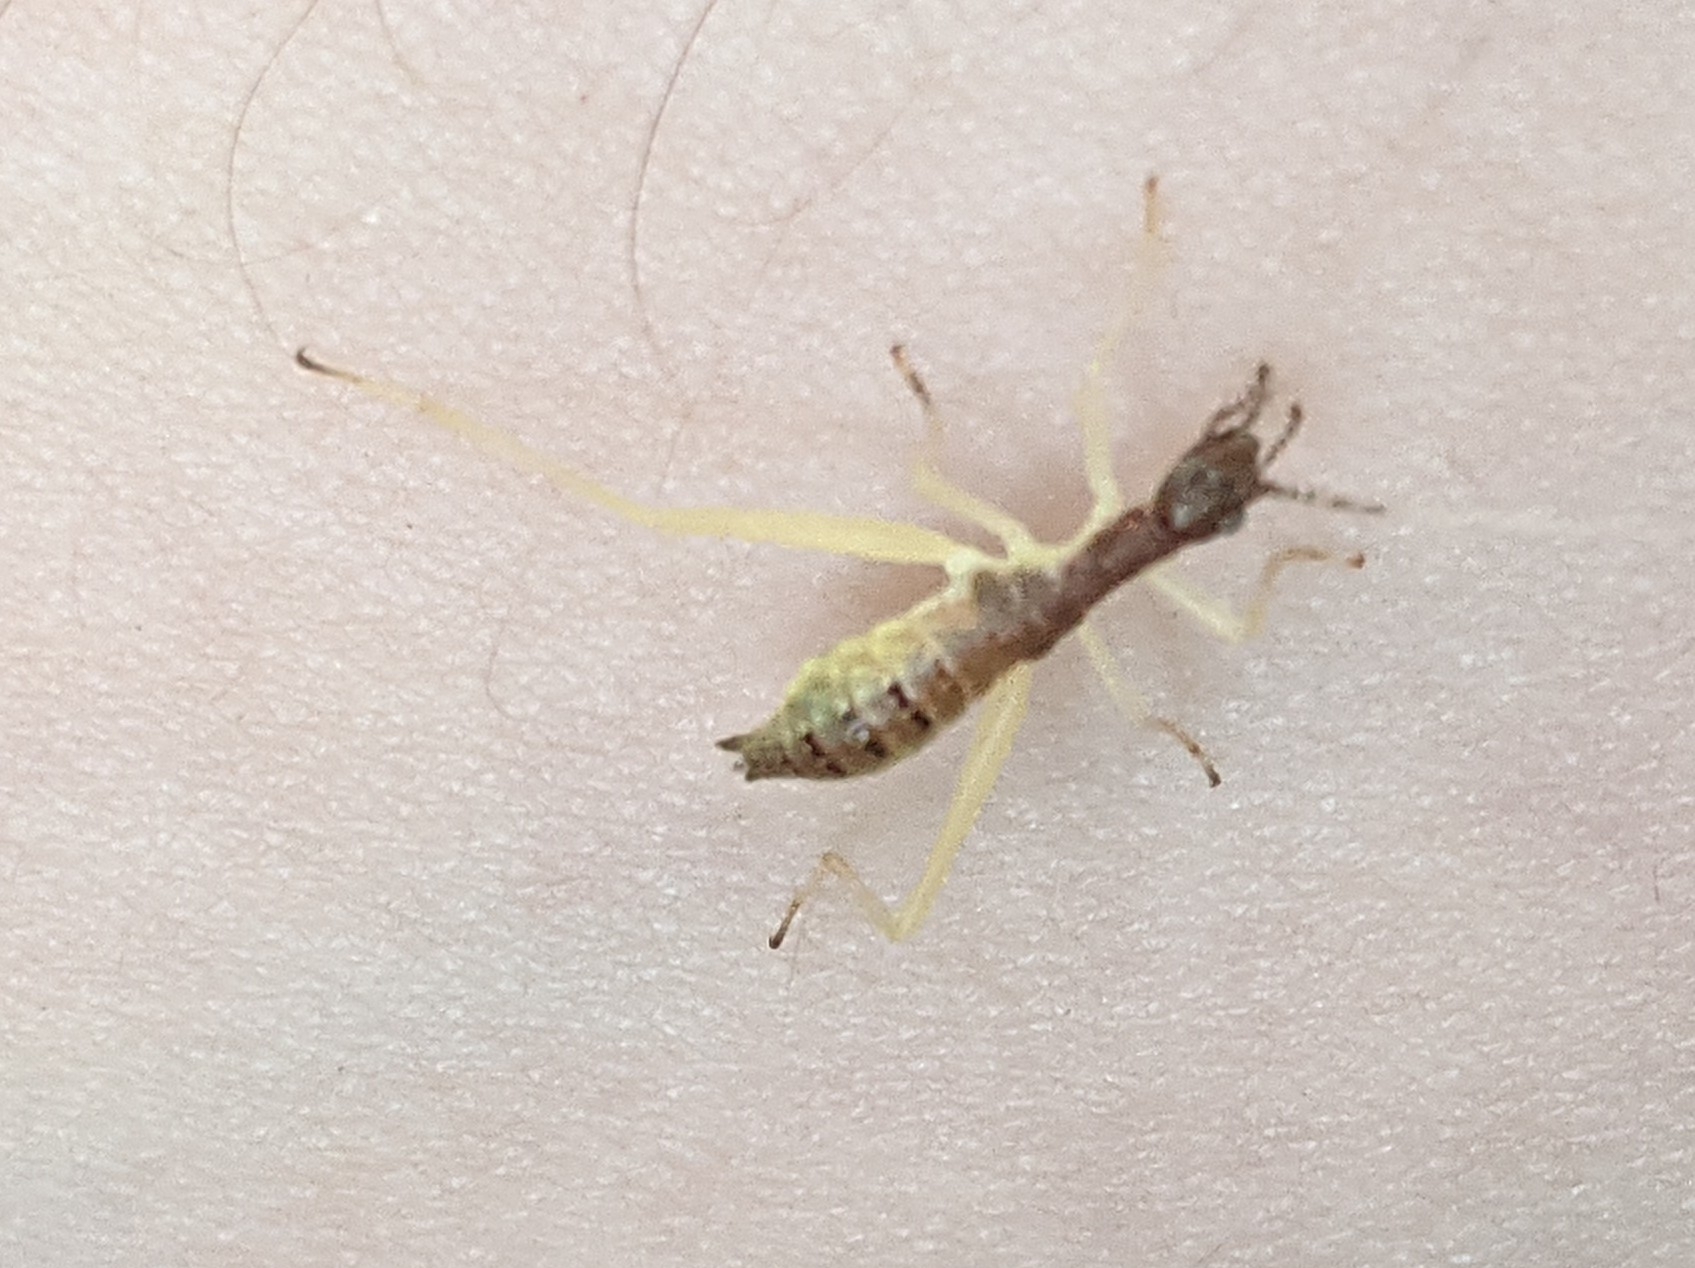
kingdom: Animalia
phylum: Arthropoda
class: Insecta
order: Orthoptera
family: Gryllidae
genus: Neoxabea
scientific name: Neoxabea bipunctata
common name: Two-spotted tree cricket
